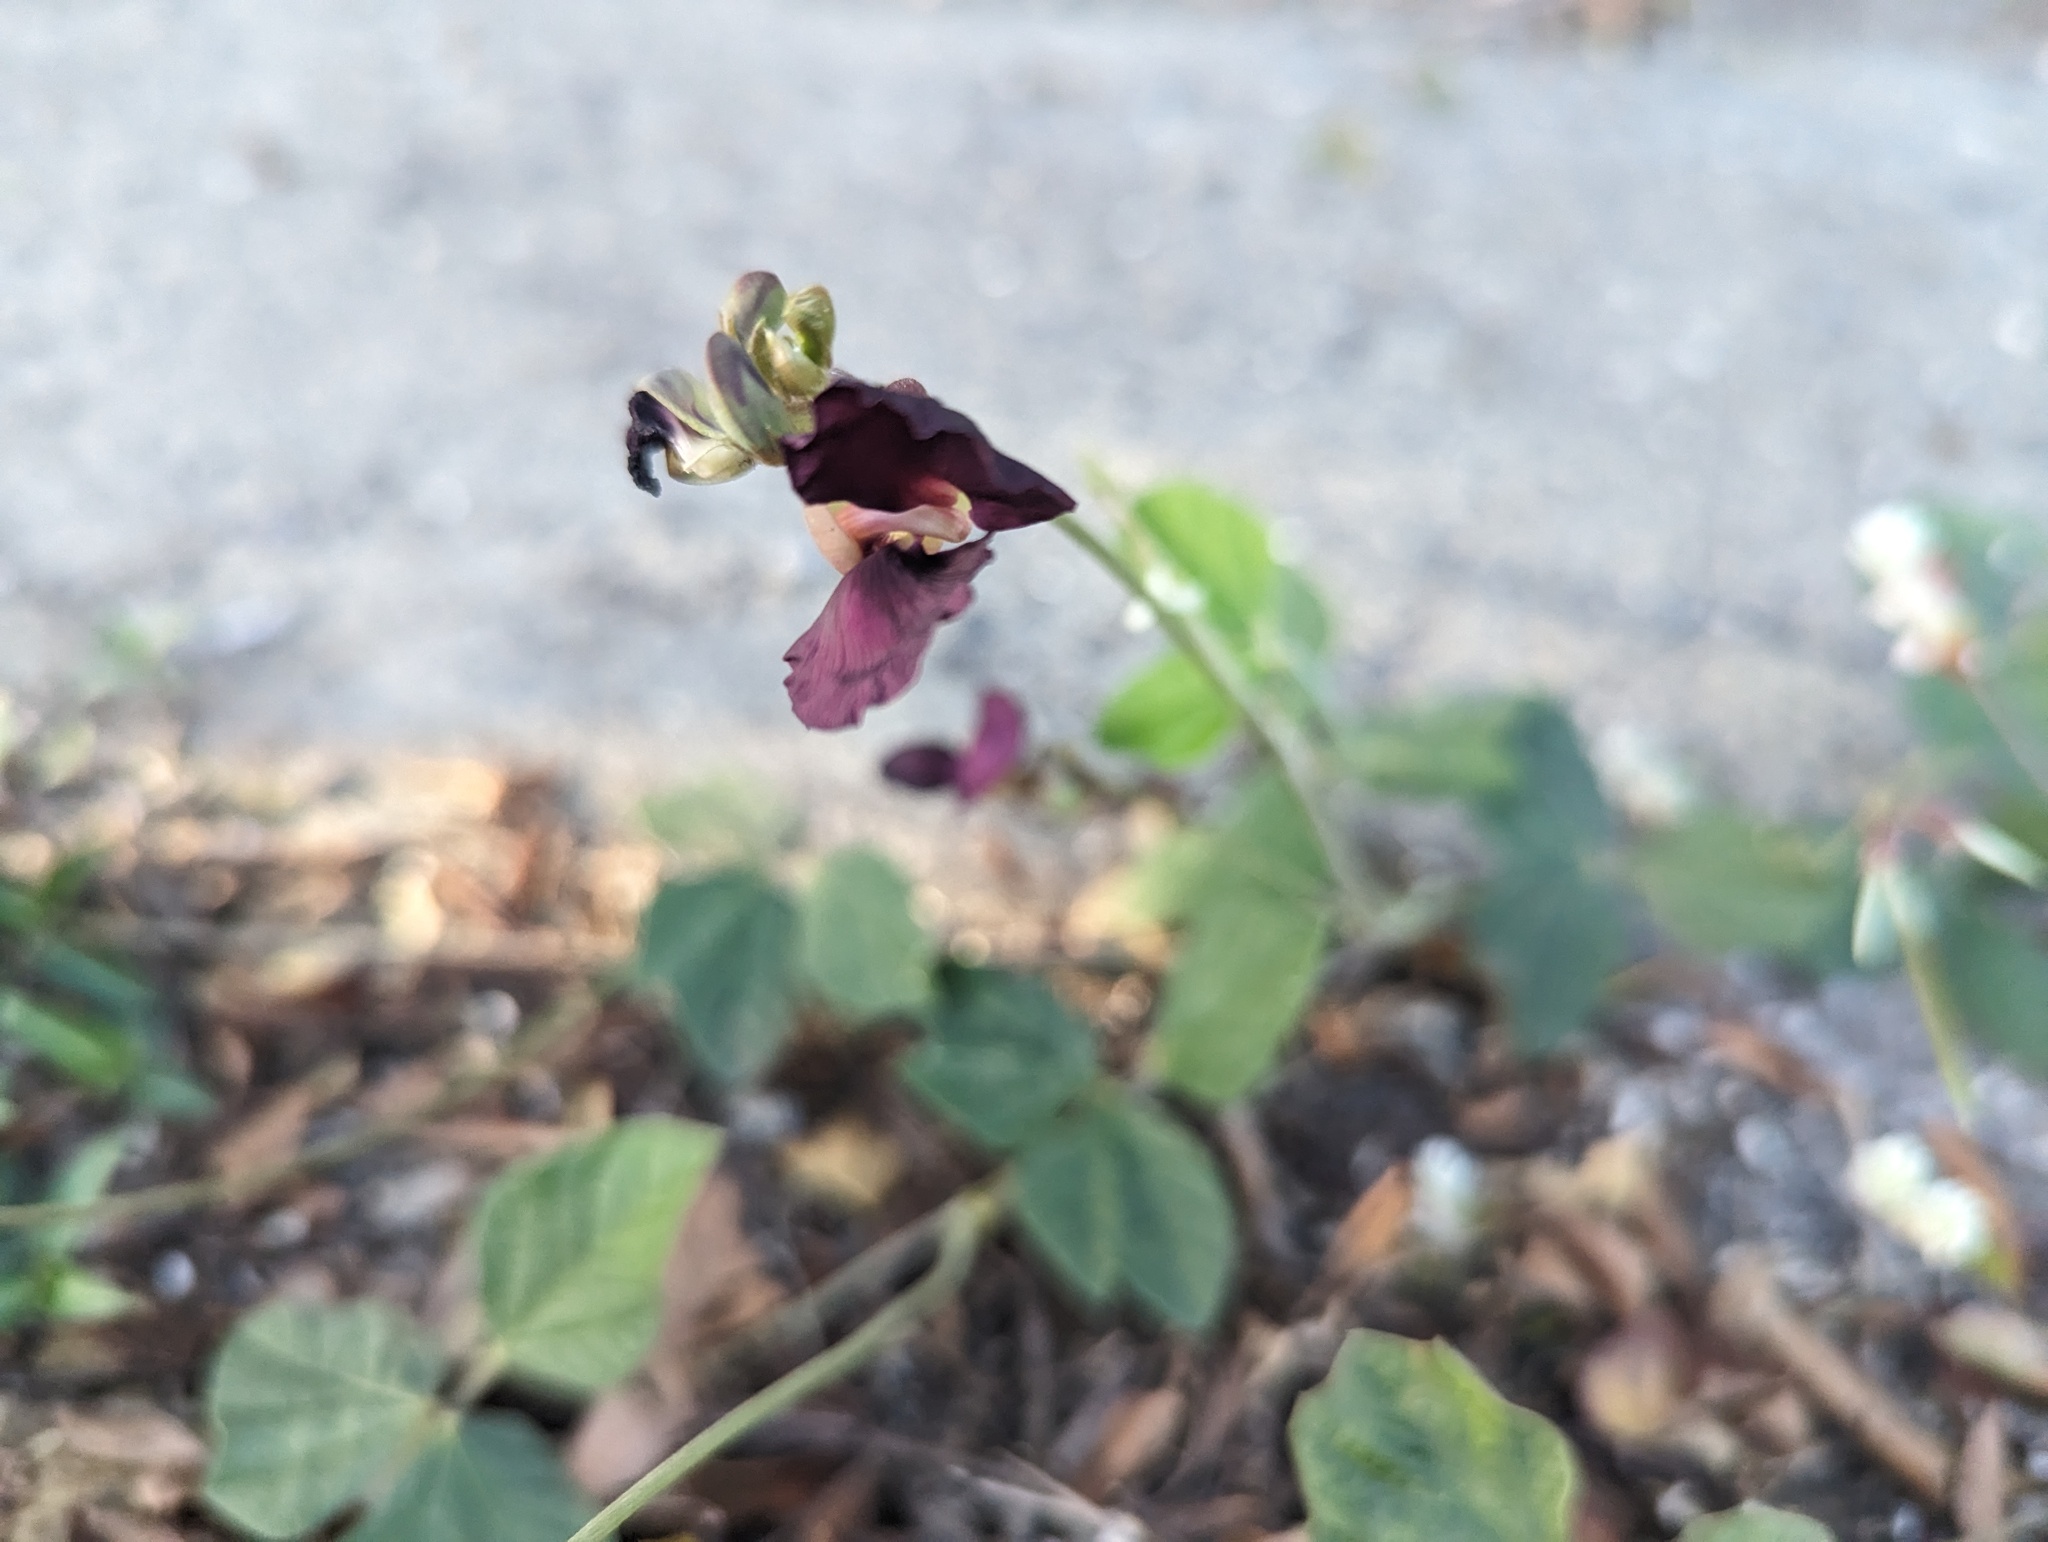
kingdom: Plantae
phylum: Tracheophyta
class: Magnoliopsida
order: Fabales
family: Fabaceae
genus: Macroptilium
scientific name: Macroptilium atropurpureum
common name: Purple bushbean
